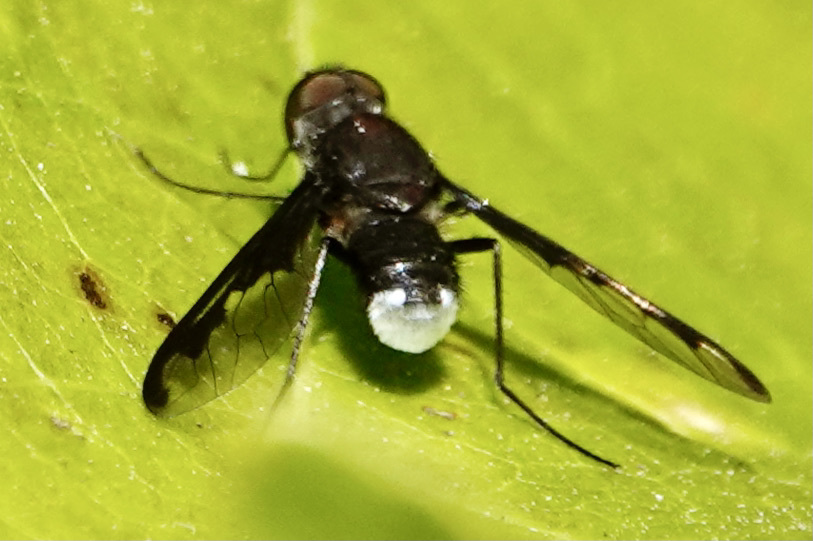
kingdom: Animalia
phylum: Arthropoda
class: Insecta
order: Diptera
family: Bombyliidae
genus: Anthrax
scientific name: Anthrax argyropygus
